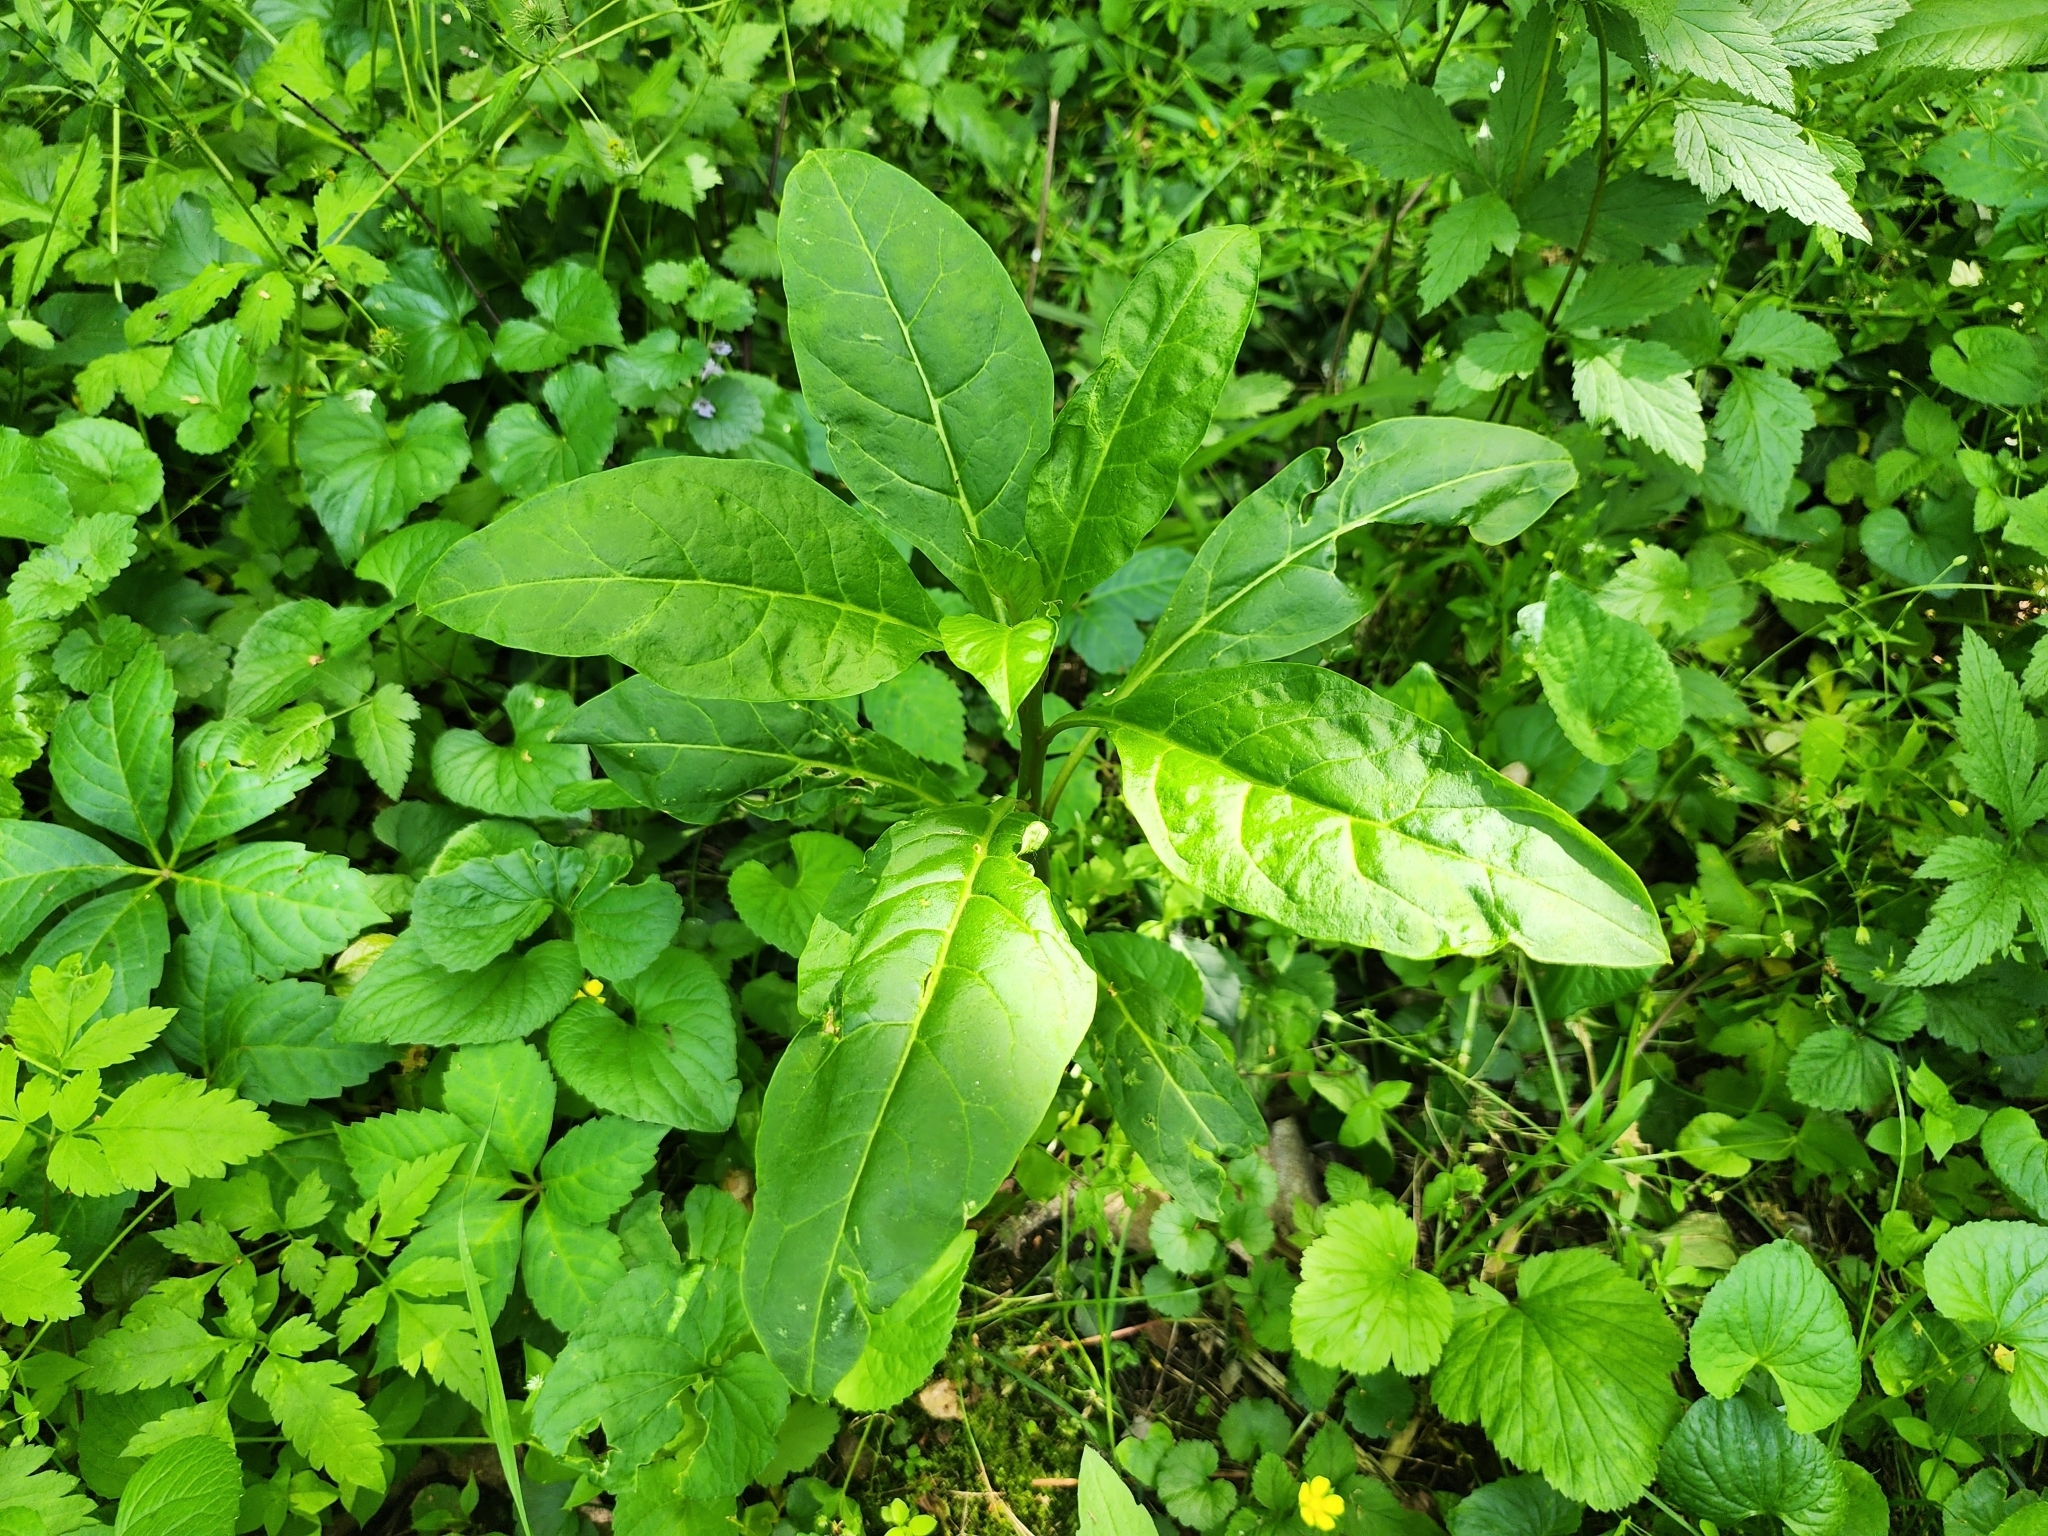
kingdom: Plantae
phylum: Tracheophyta
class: Magnoliopsida
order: Caryophyllales
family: Phytolaccaceae
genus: Phytolacca
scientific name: Phytolacca americana
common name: American pokeweed
